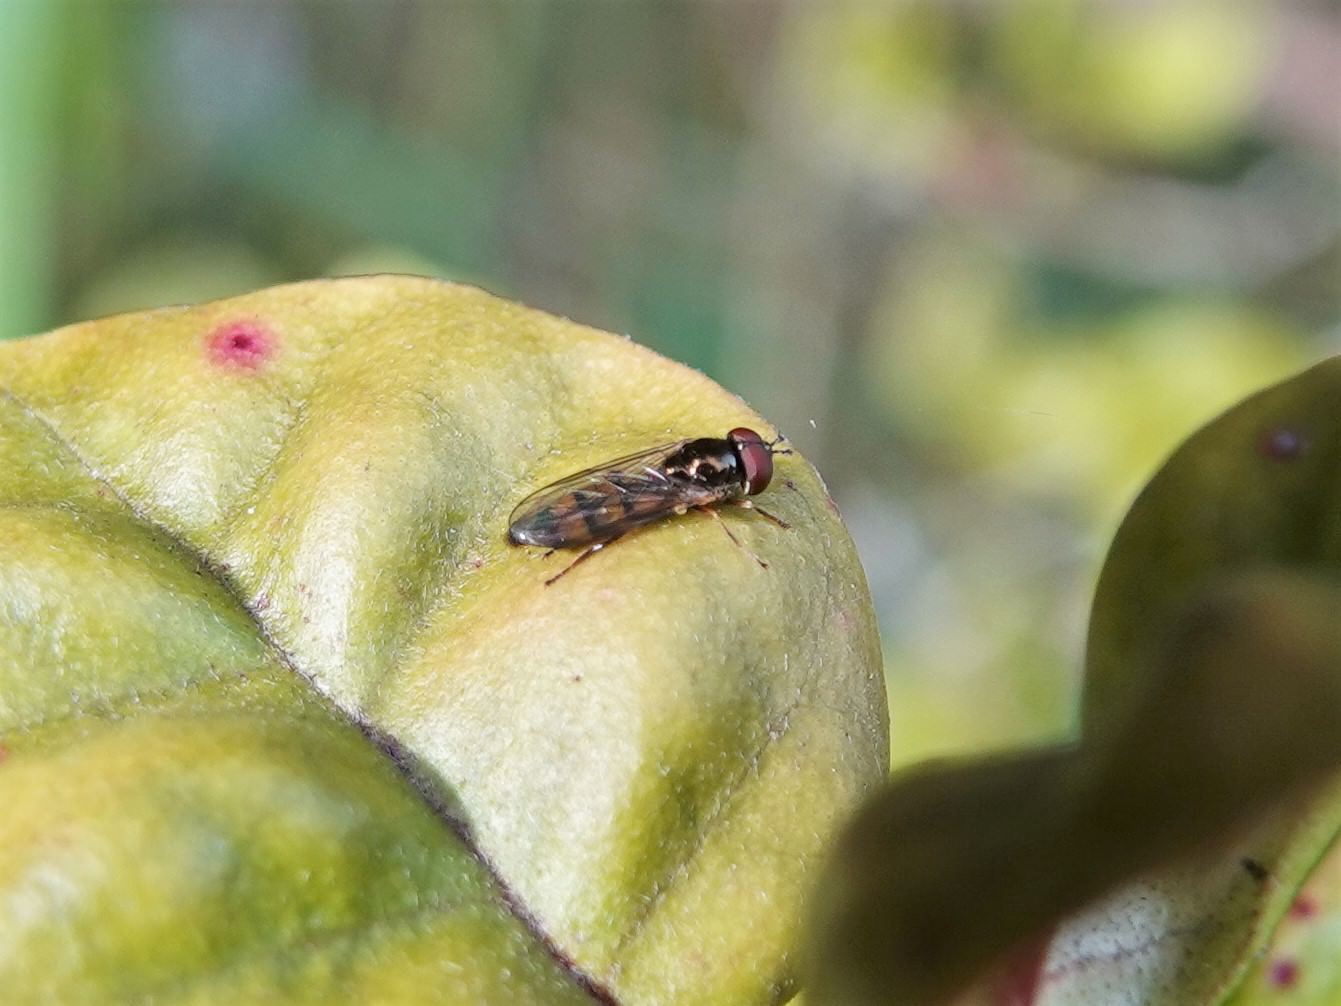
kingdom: Animalia
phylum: Arthropoda
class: Insecta
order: Diptera
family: Syrphidae
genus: Melanostoma
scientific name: Melanostoma fasciatum
